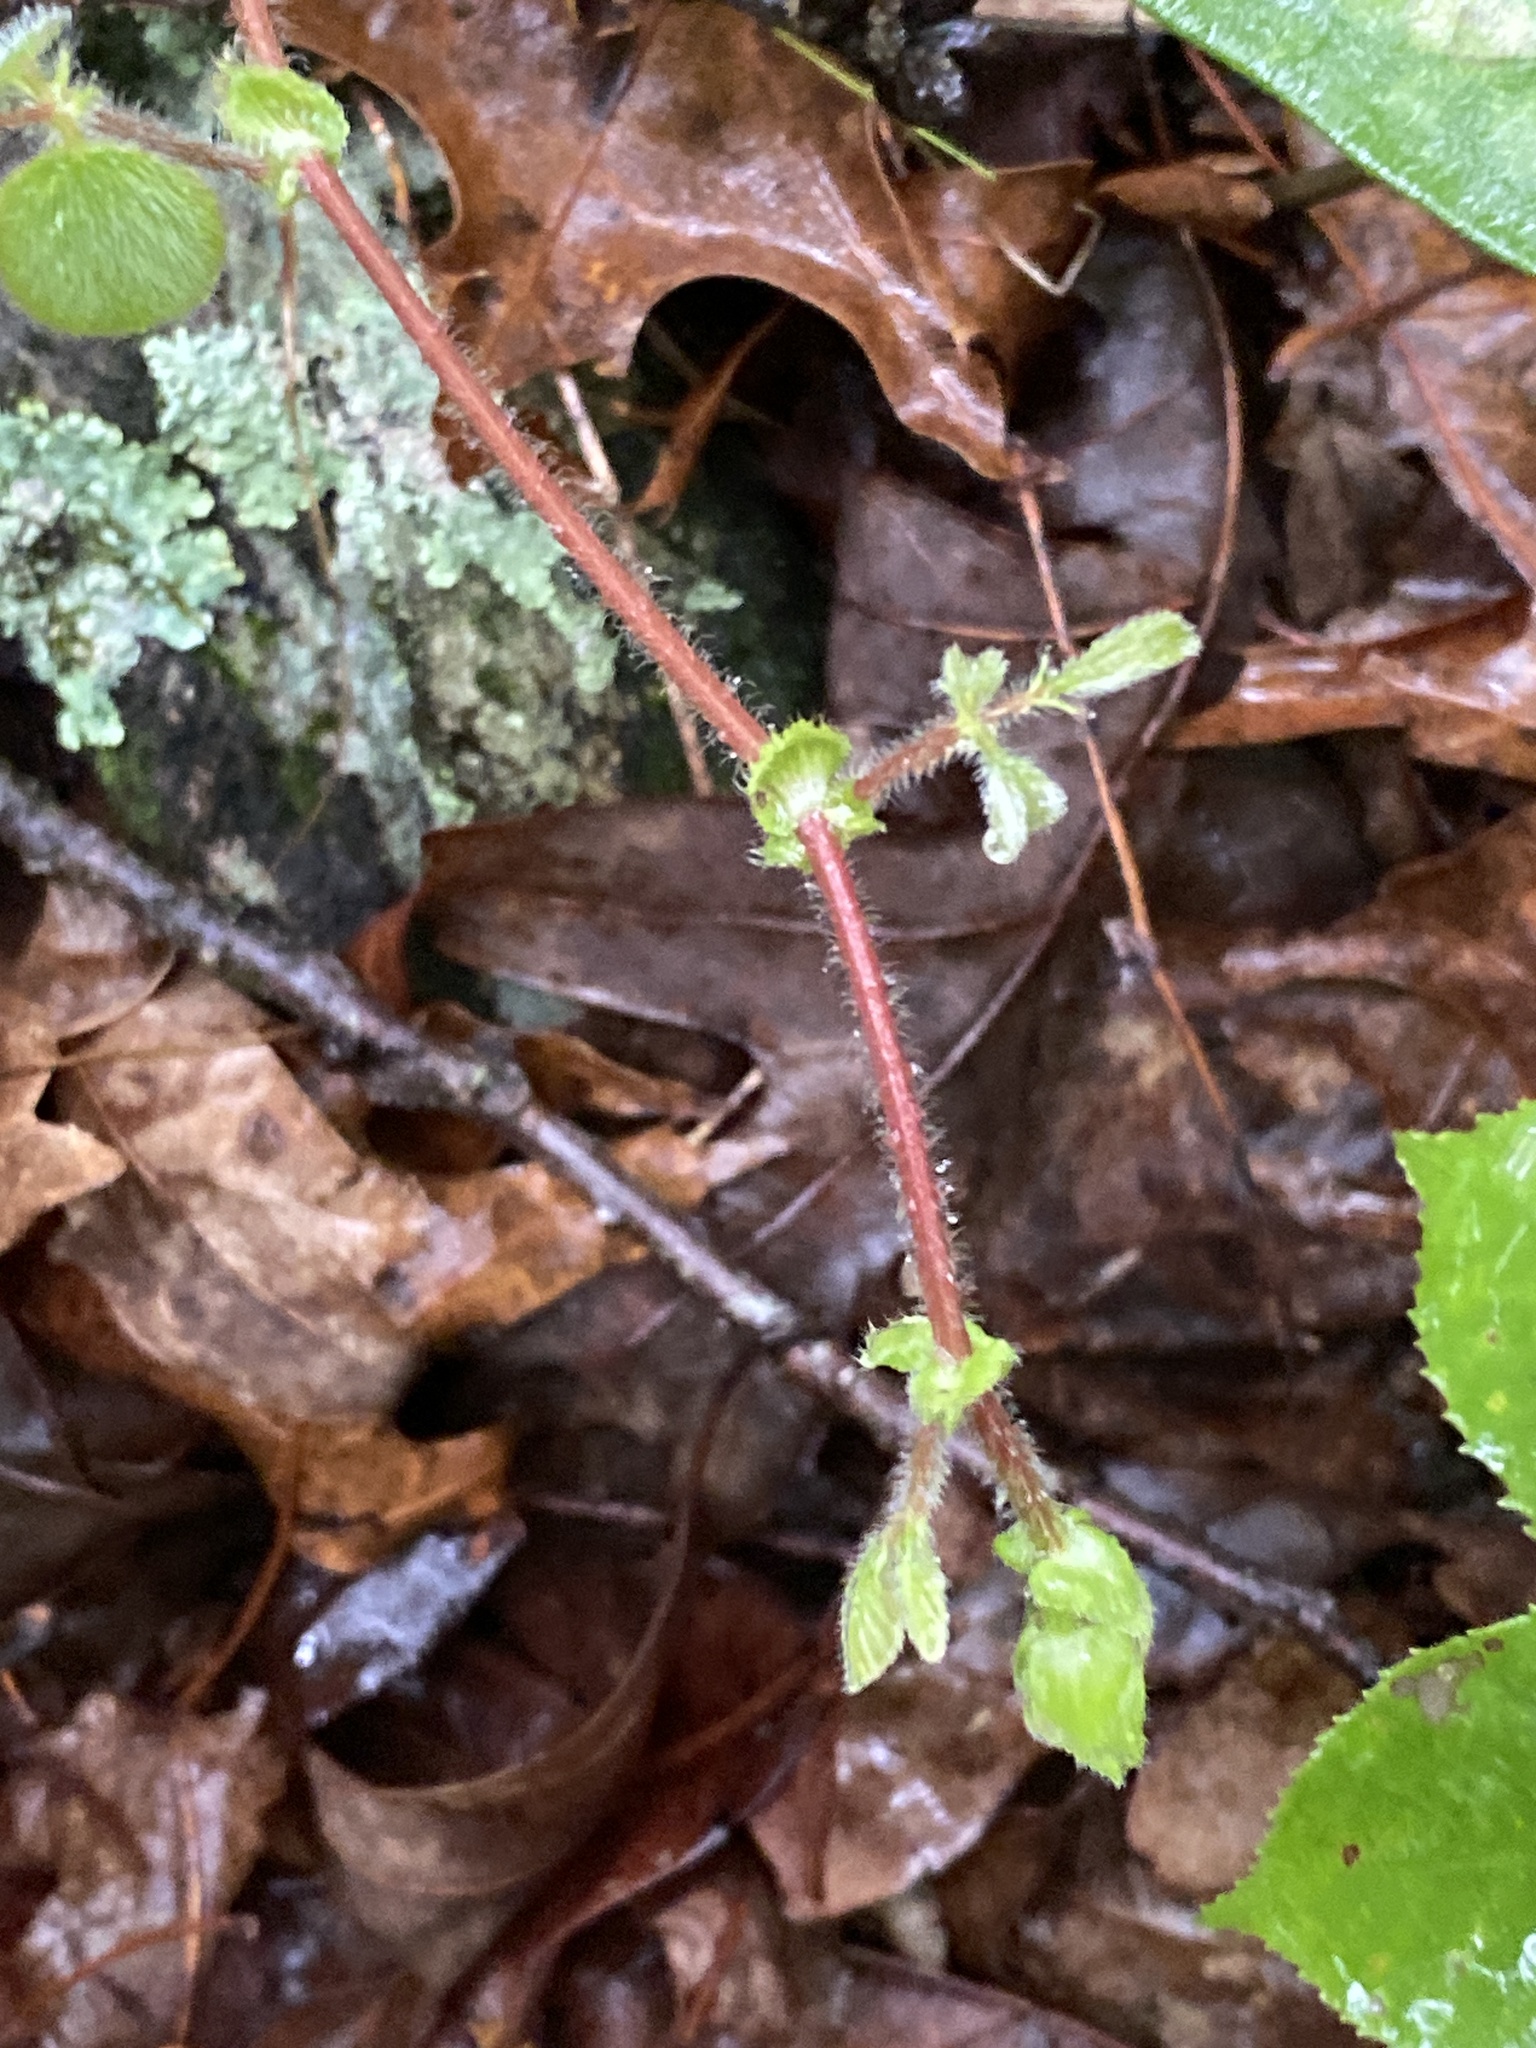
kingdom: Plantae
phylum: Tracheophyta
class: Magnoliopsida
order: Fabales
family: Fabaceae
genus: Desmodium
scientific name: Desmodium rotundifolium
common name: Dollarleaf
